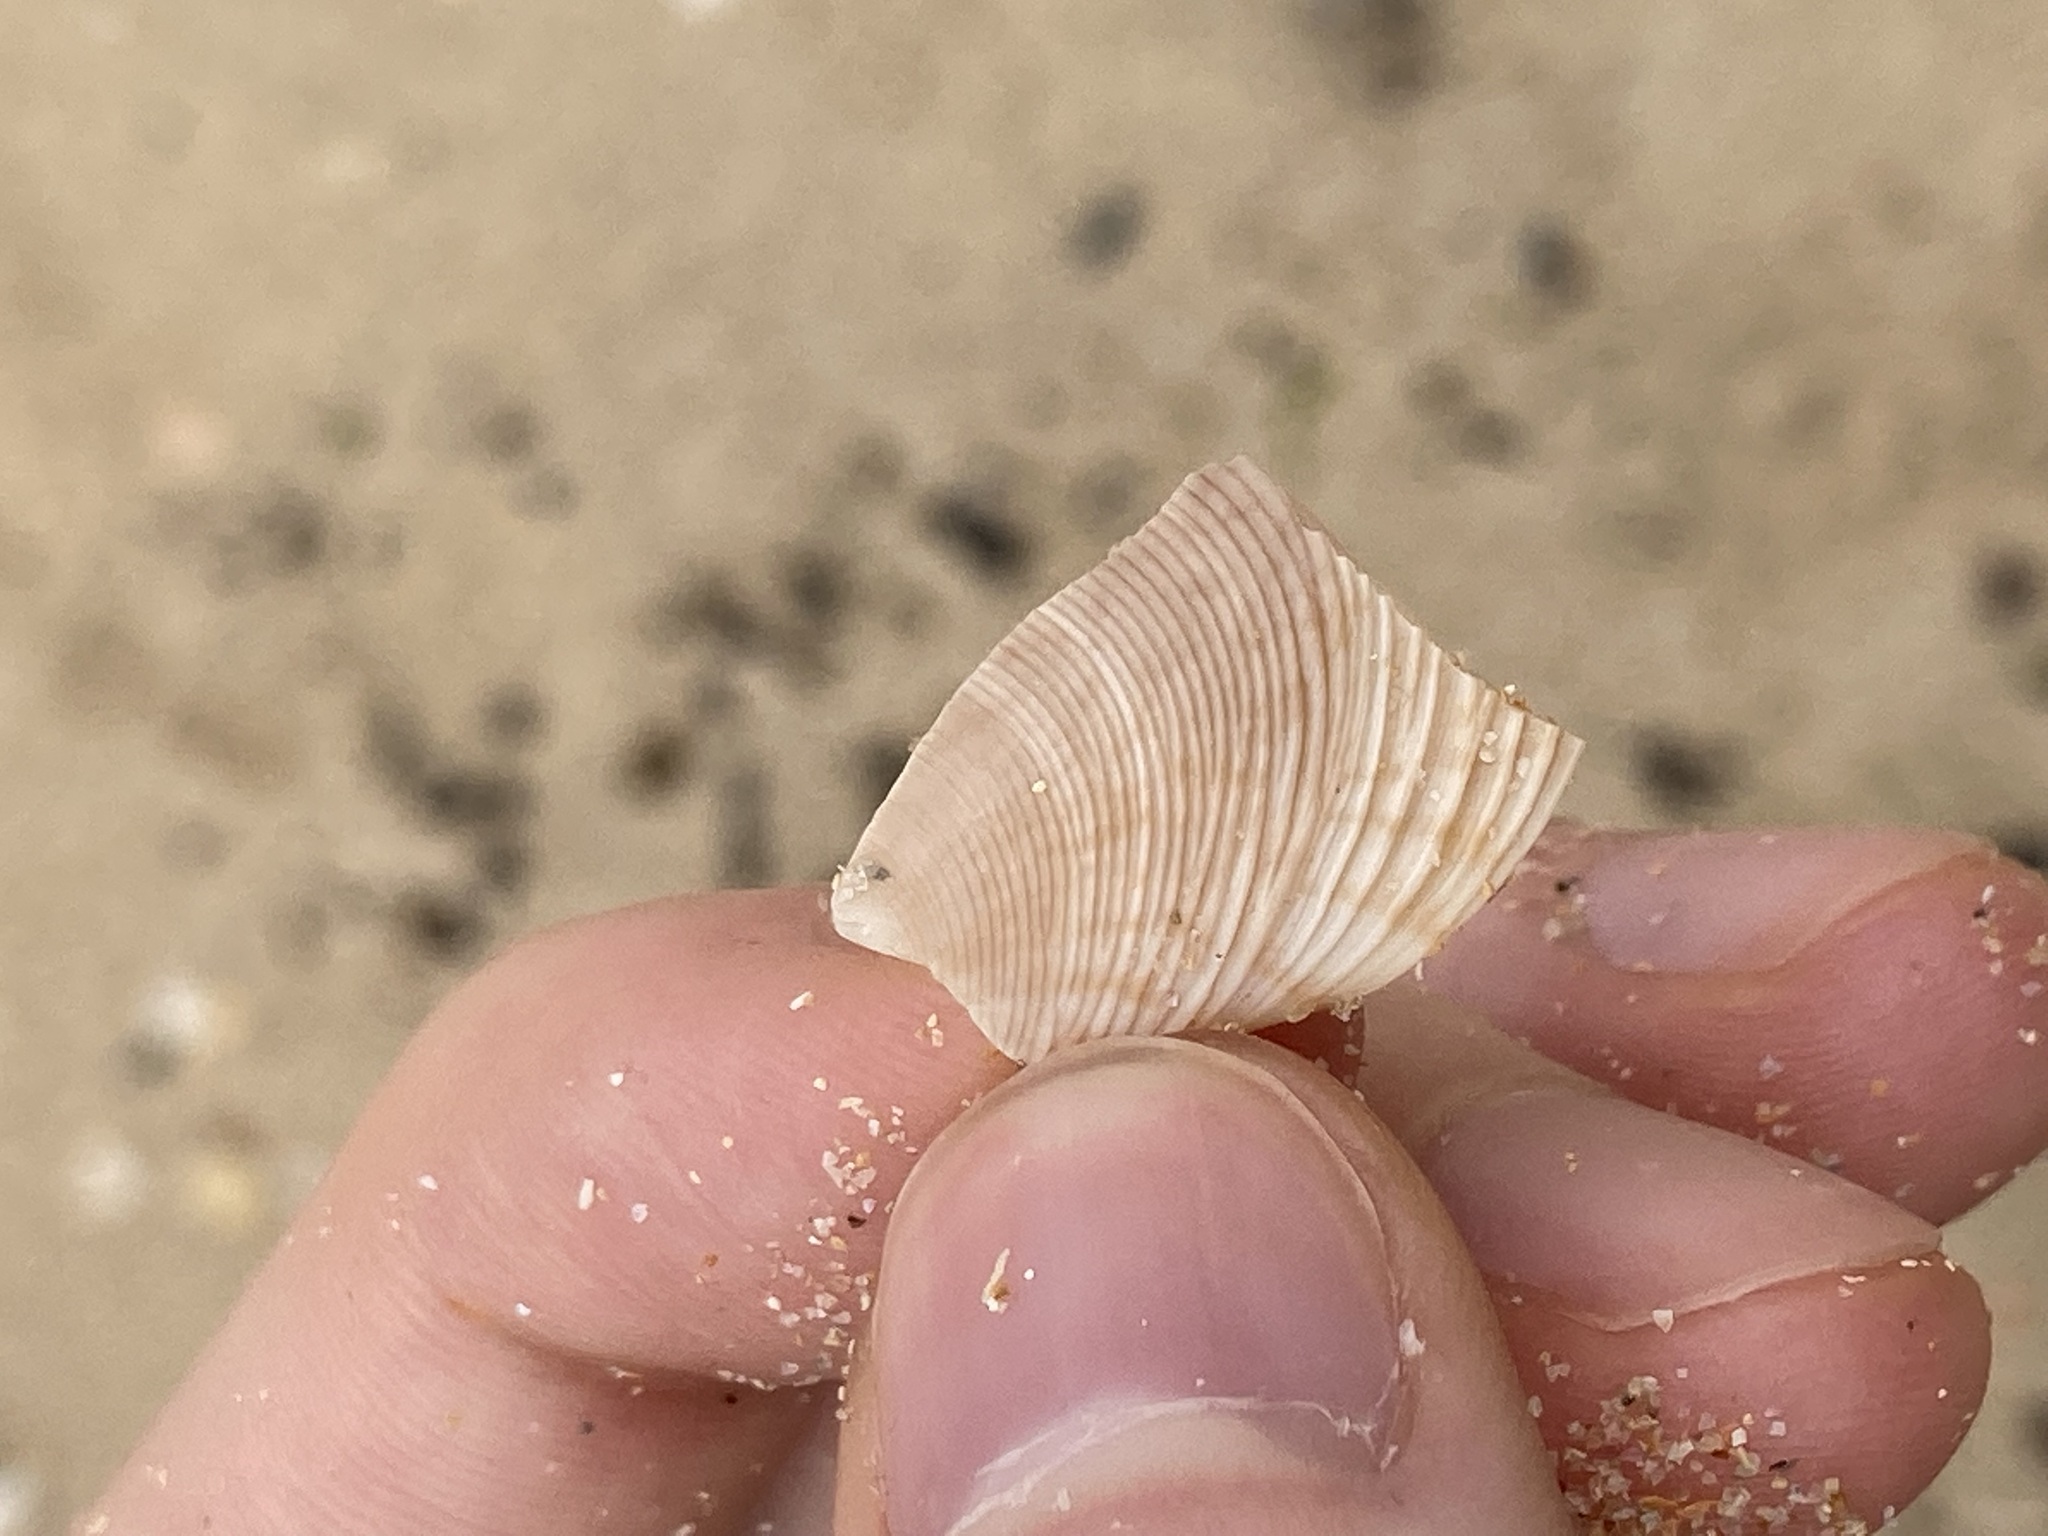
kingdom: Animalia
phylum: Mollusca
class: Bivalvia
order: Venerida
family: Veneridae
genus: Tapes
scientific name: Tapes conspersus
